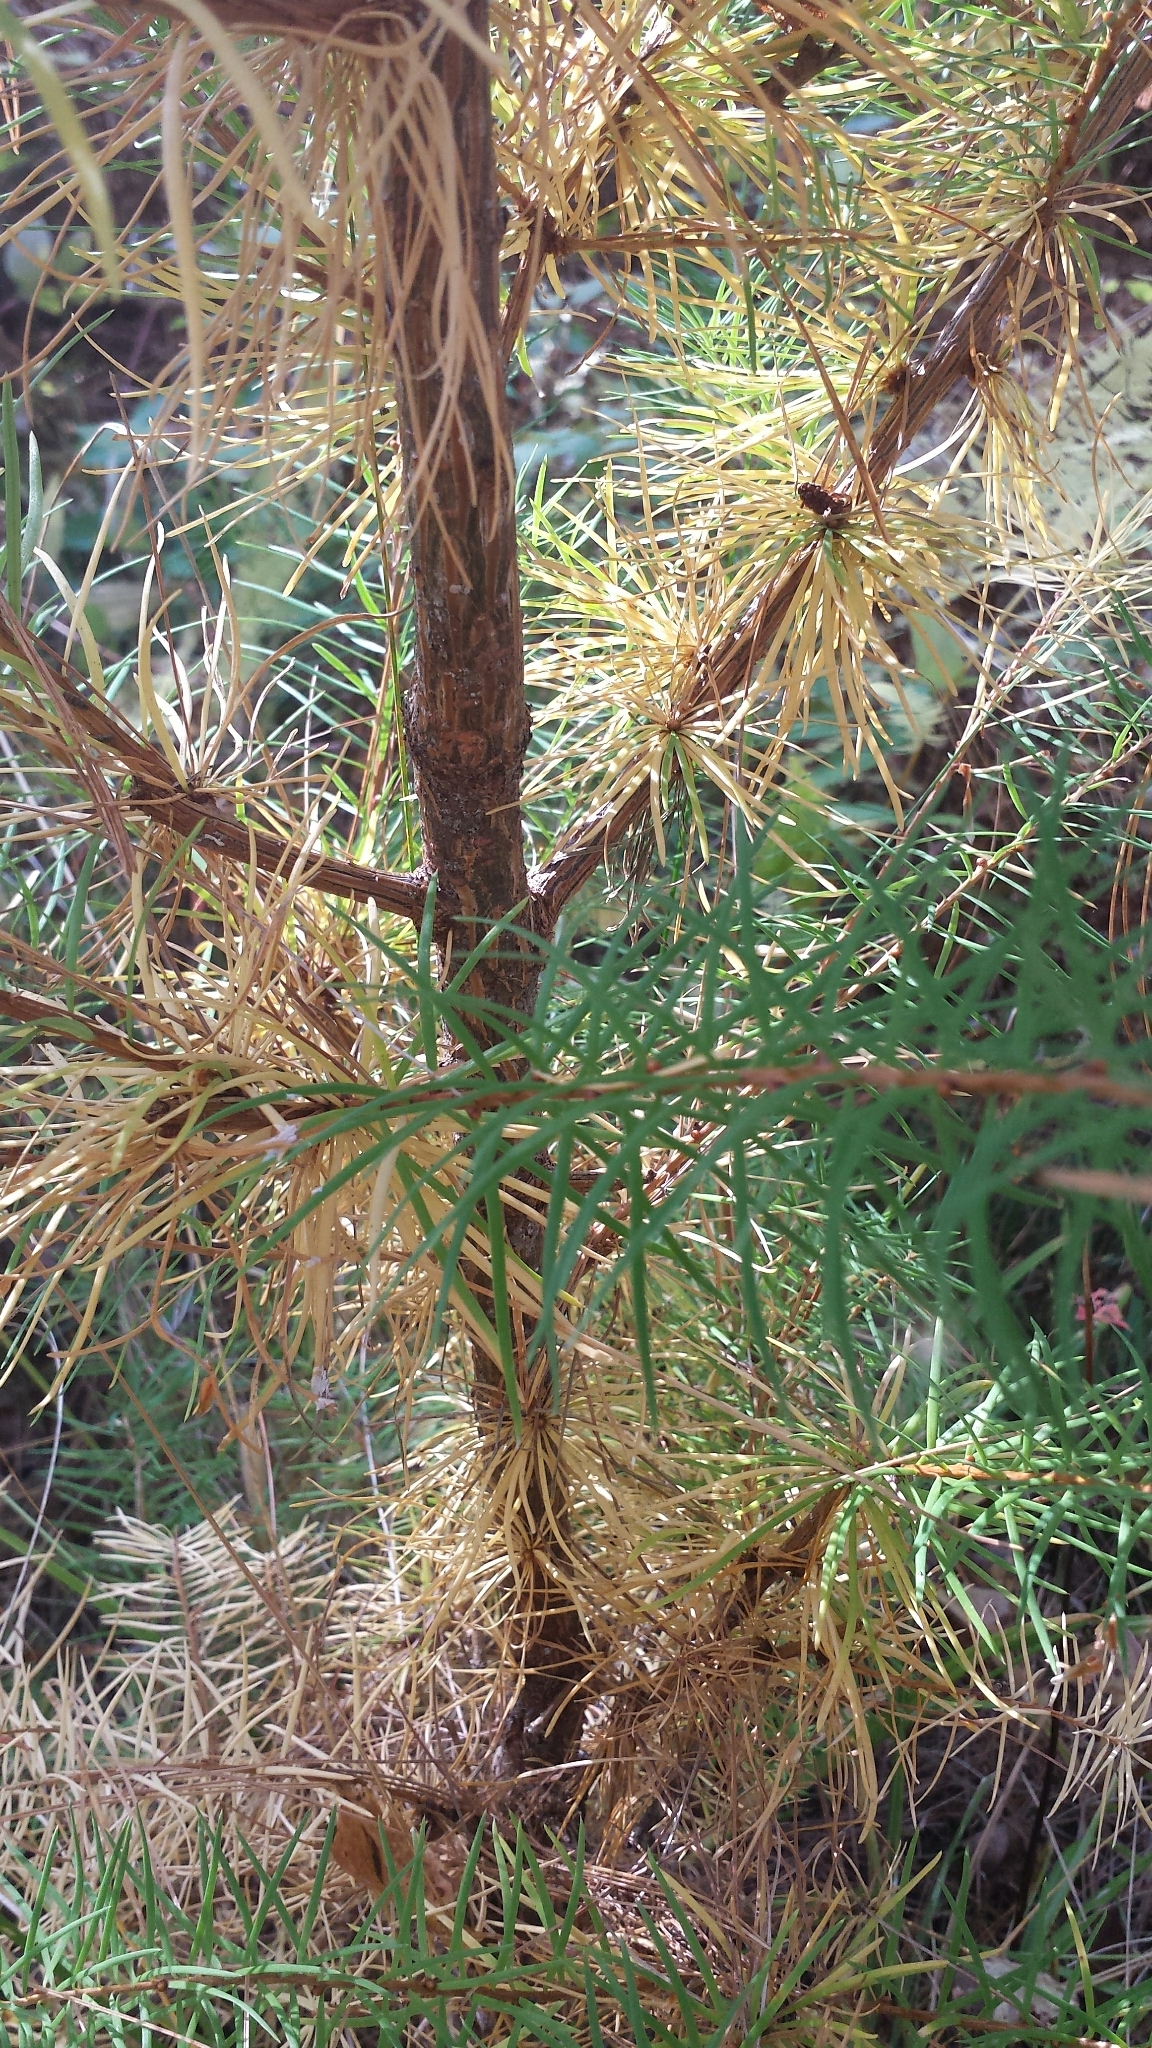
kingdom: Plantae
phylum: Tracheophyta
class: Pinopsida
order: Pinales
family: Pinaceae
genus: Larix
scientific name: Larix laricina
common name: American larch
